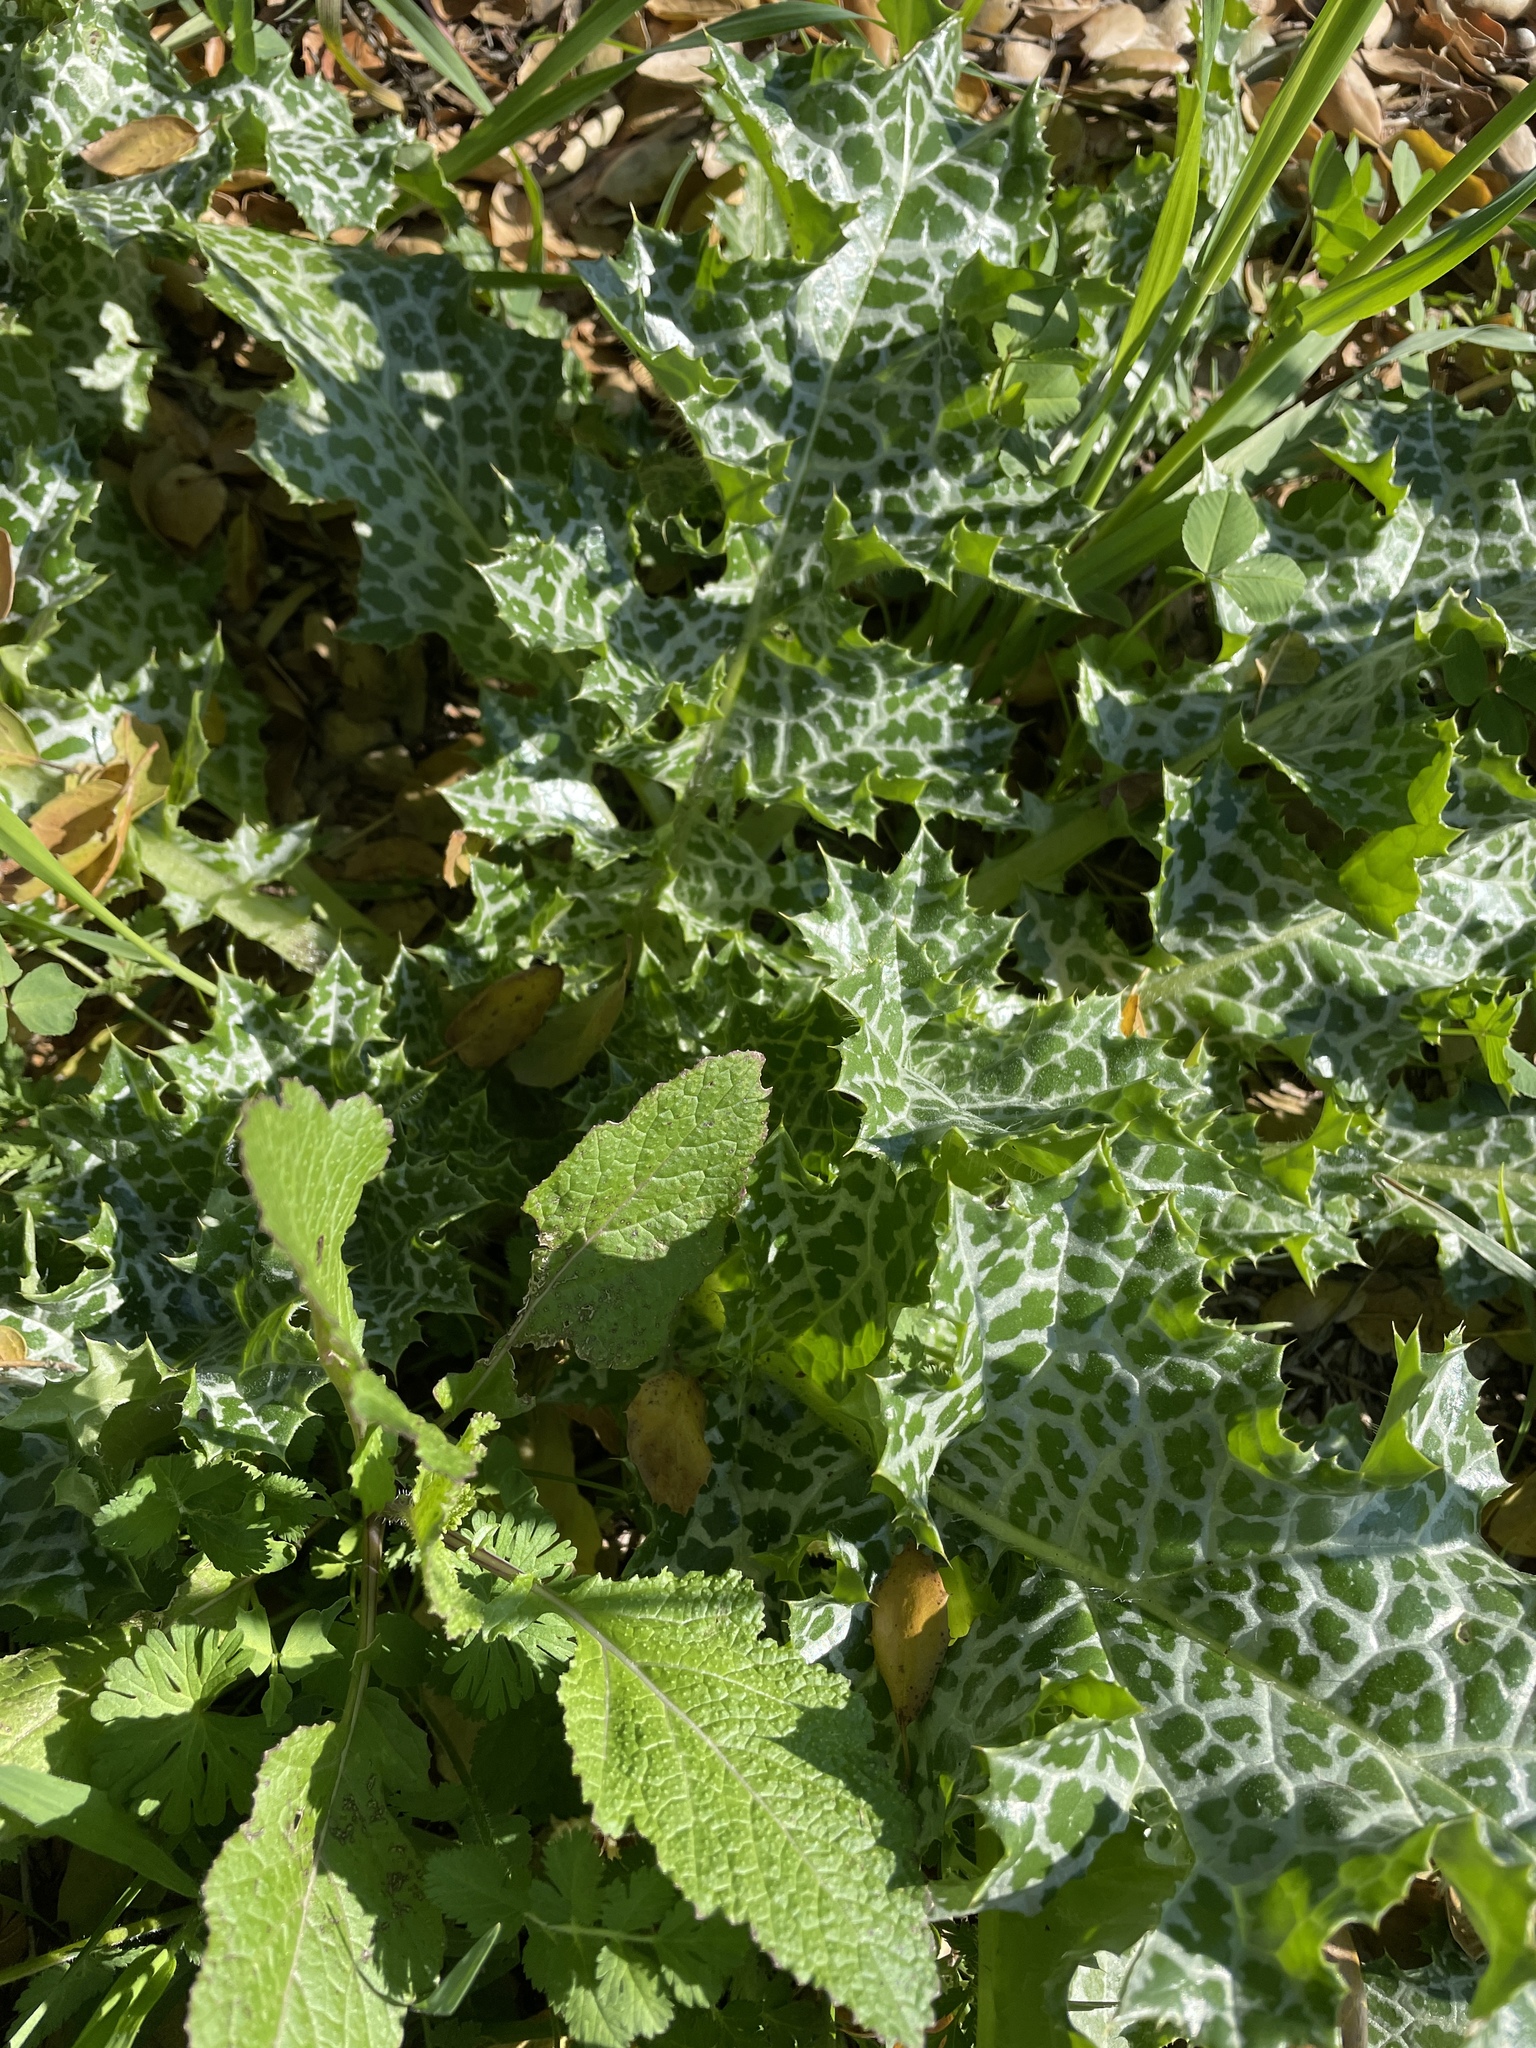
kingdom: Plantae
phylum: Tracheophyta
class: Magnoliopsida
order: Asterales
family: Asteraceae
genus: Silybum
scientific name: Silybum marianum
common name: Milk thistle
